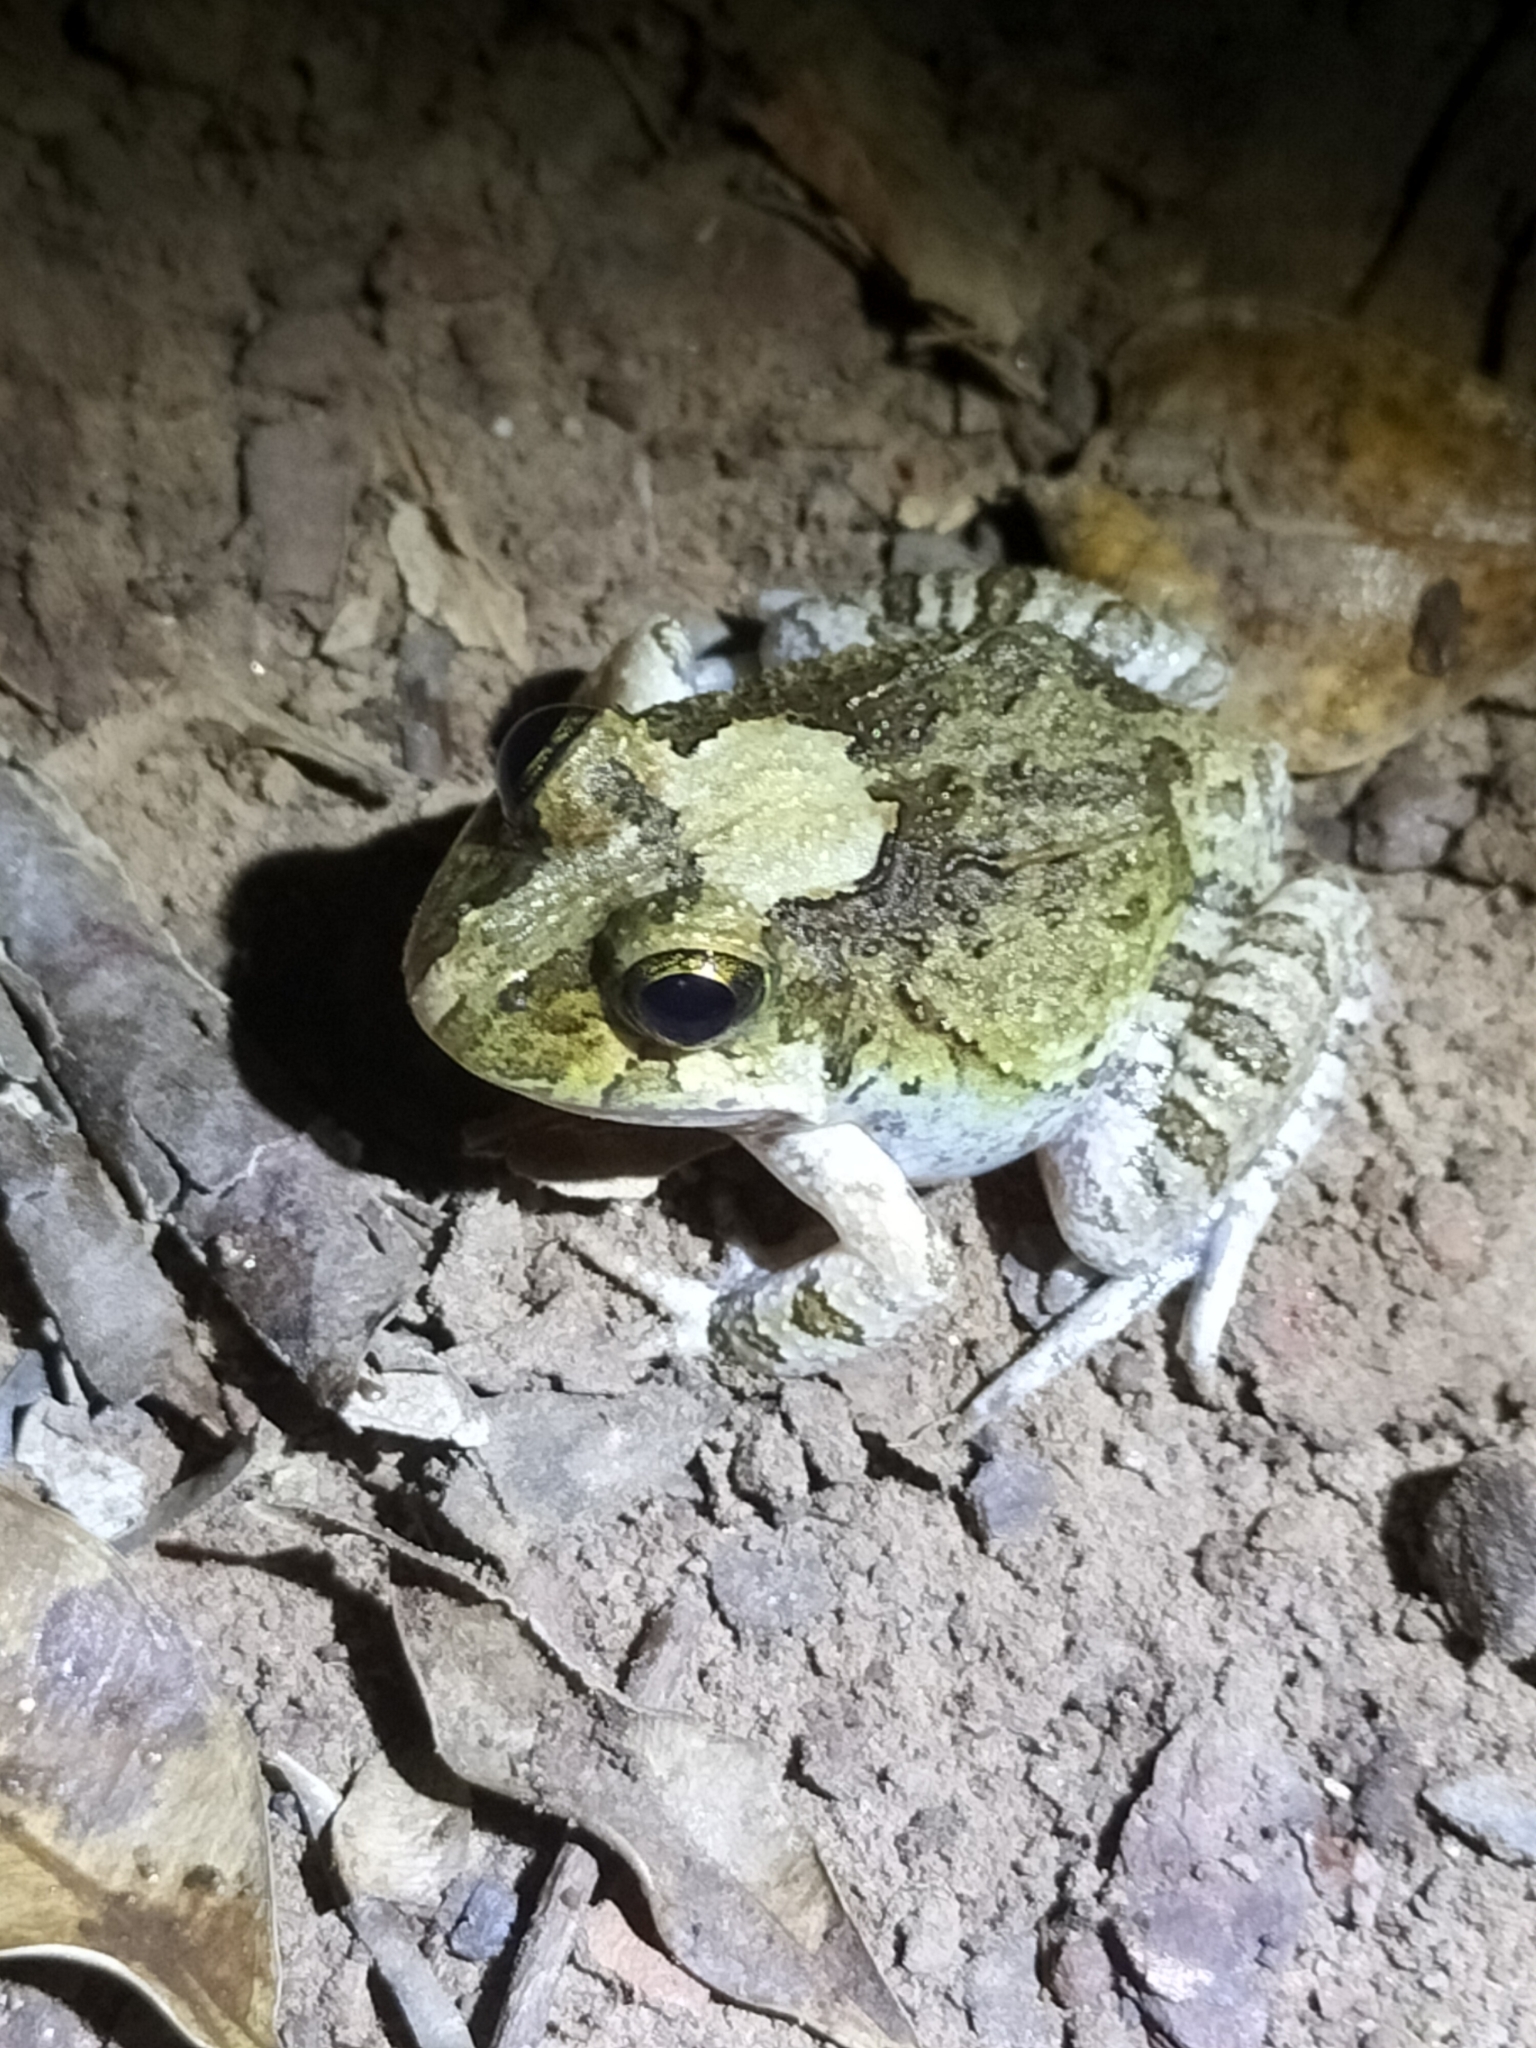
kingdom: Animalia
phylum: Chordata
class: Amphibia
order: Anura
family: Limnodynastidae
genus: Platyplectrum
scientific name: Platyplectrum ornatum
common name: Ornate burrowing frog
